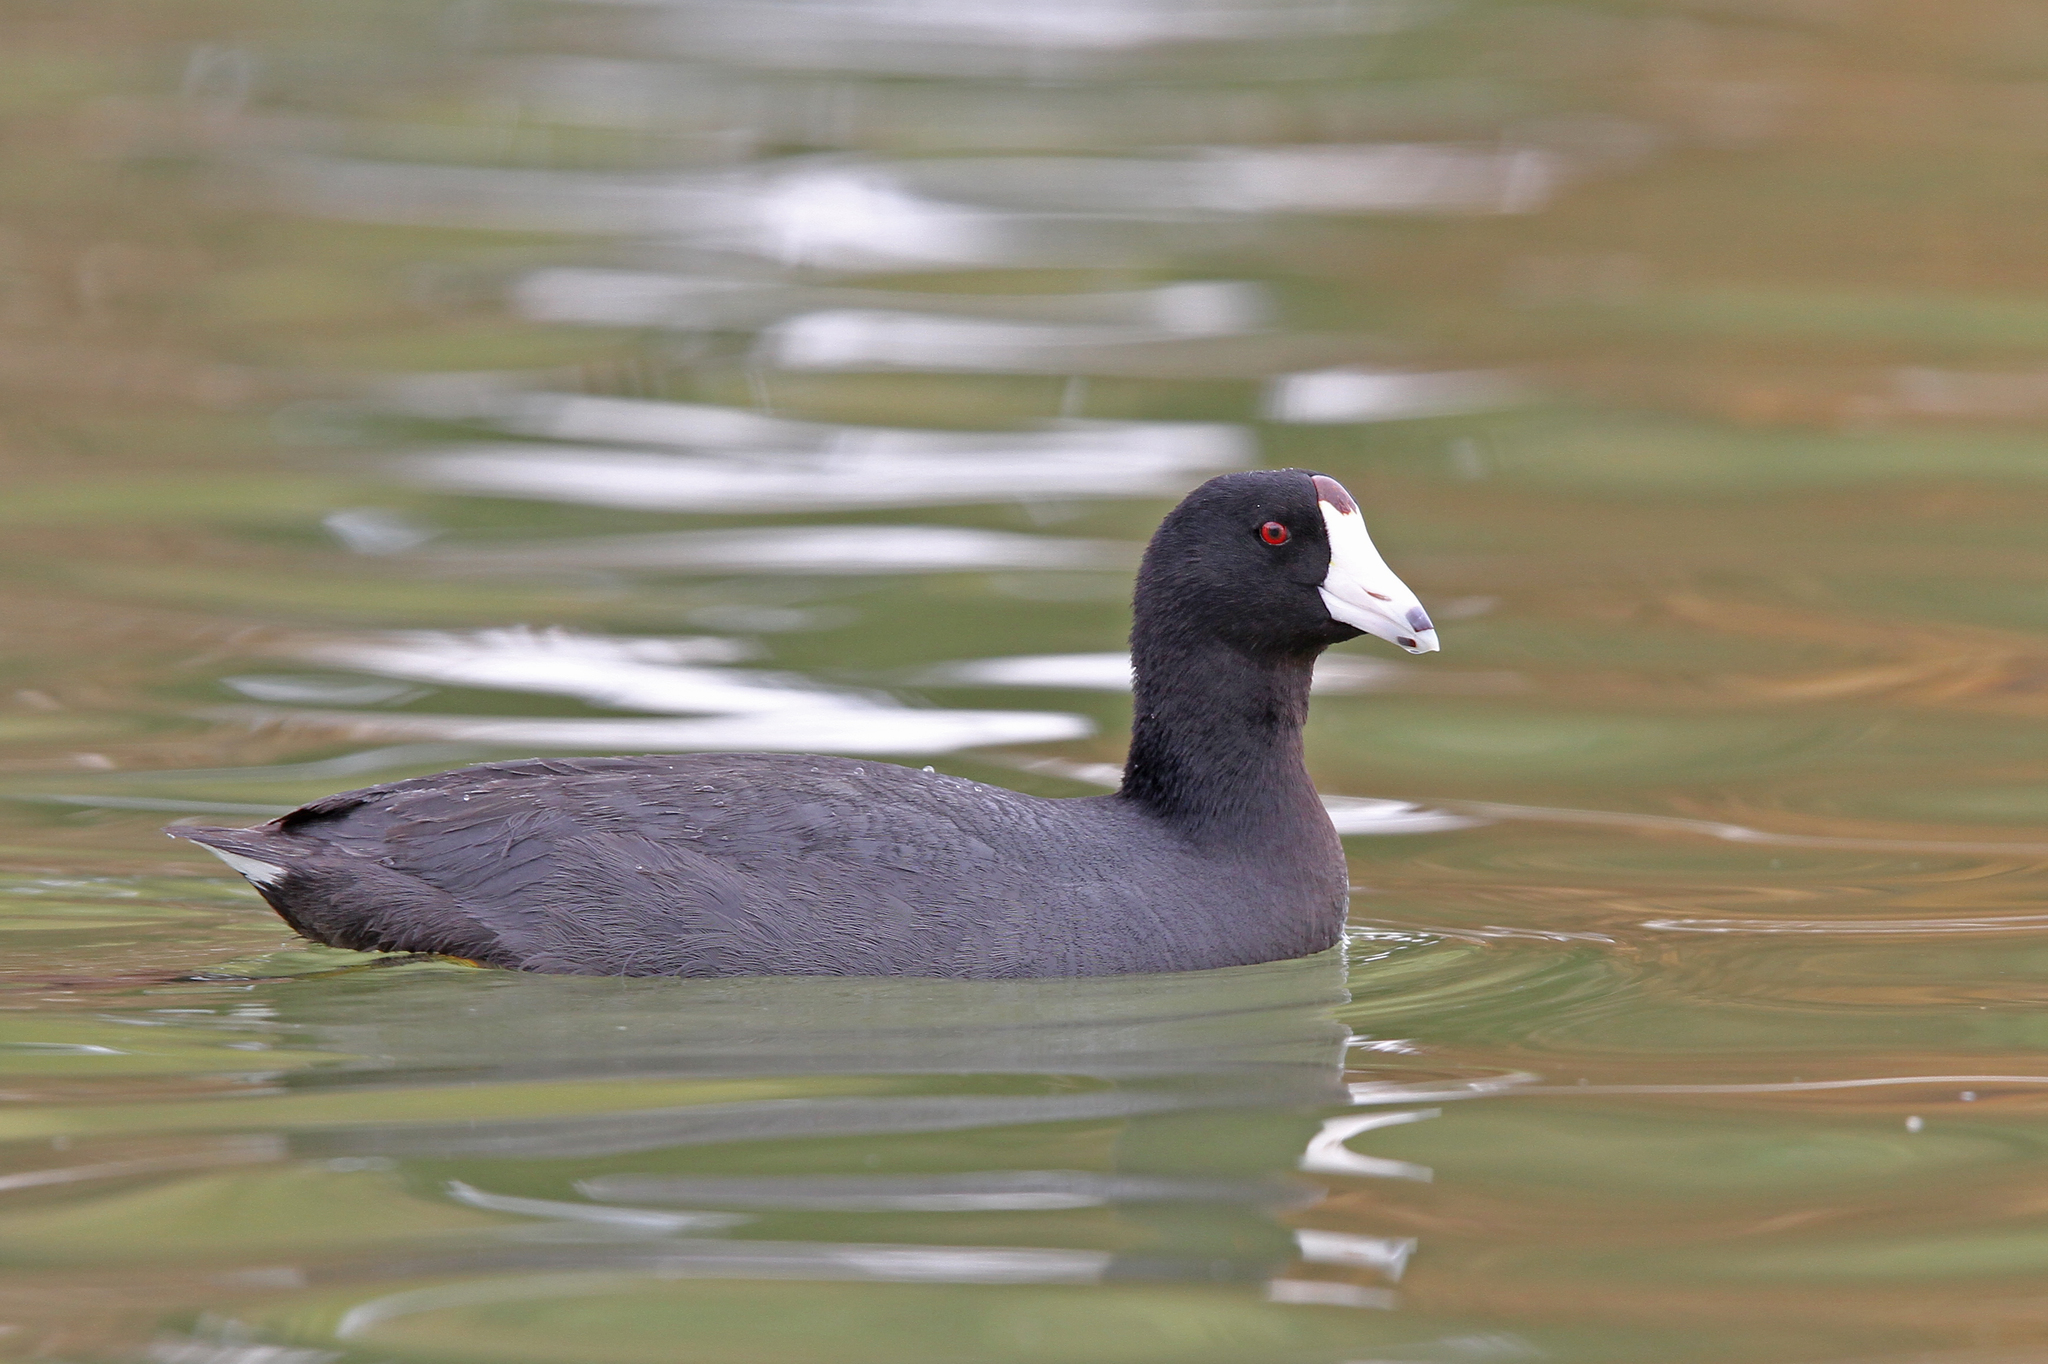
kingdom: Animalia
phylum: Chordata
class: Aves
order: Gruiformes
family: Rallidae
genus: Fulica
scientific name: Fulica americana
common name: American coot
